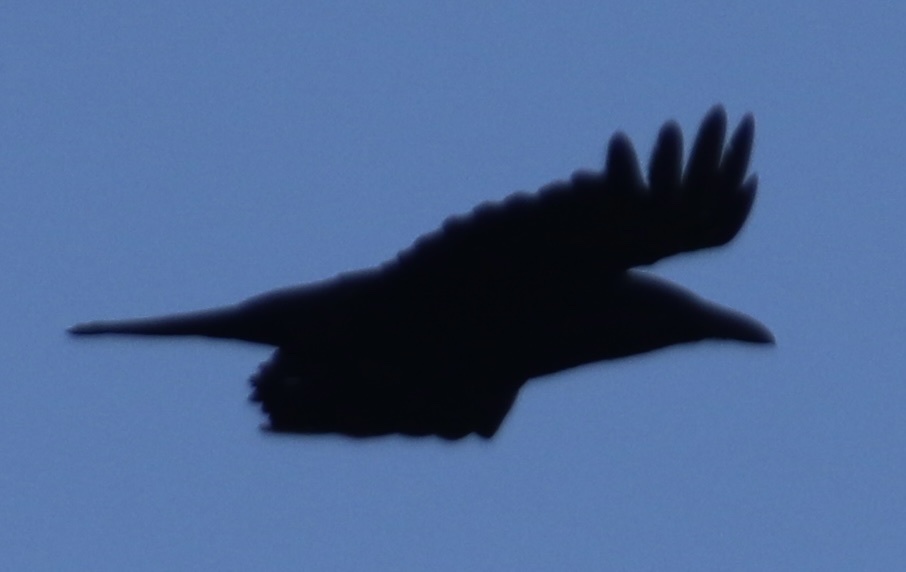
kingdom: Animalia
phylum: Chordata
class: Aves
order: Passeriformes
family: Corvidae
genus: Corvus
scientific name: Corvus corax
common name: Common raven
